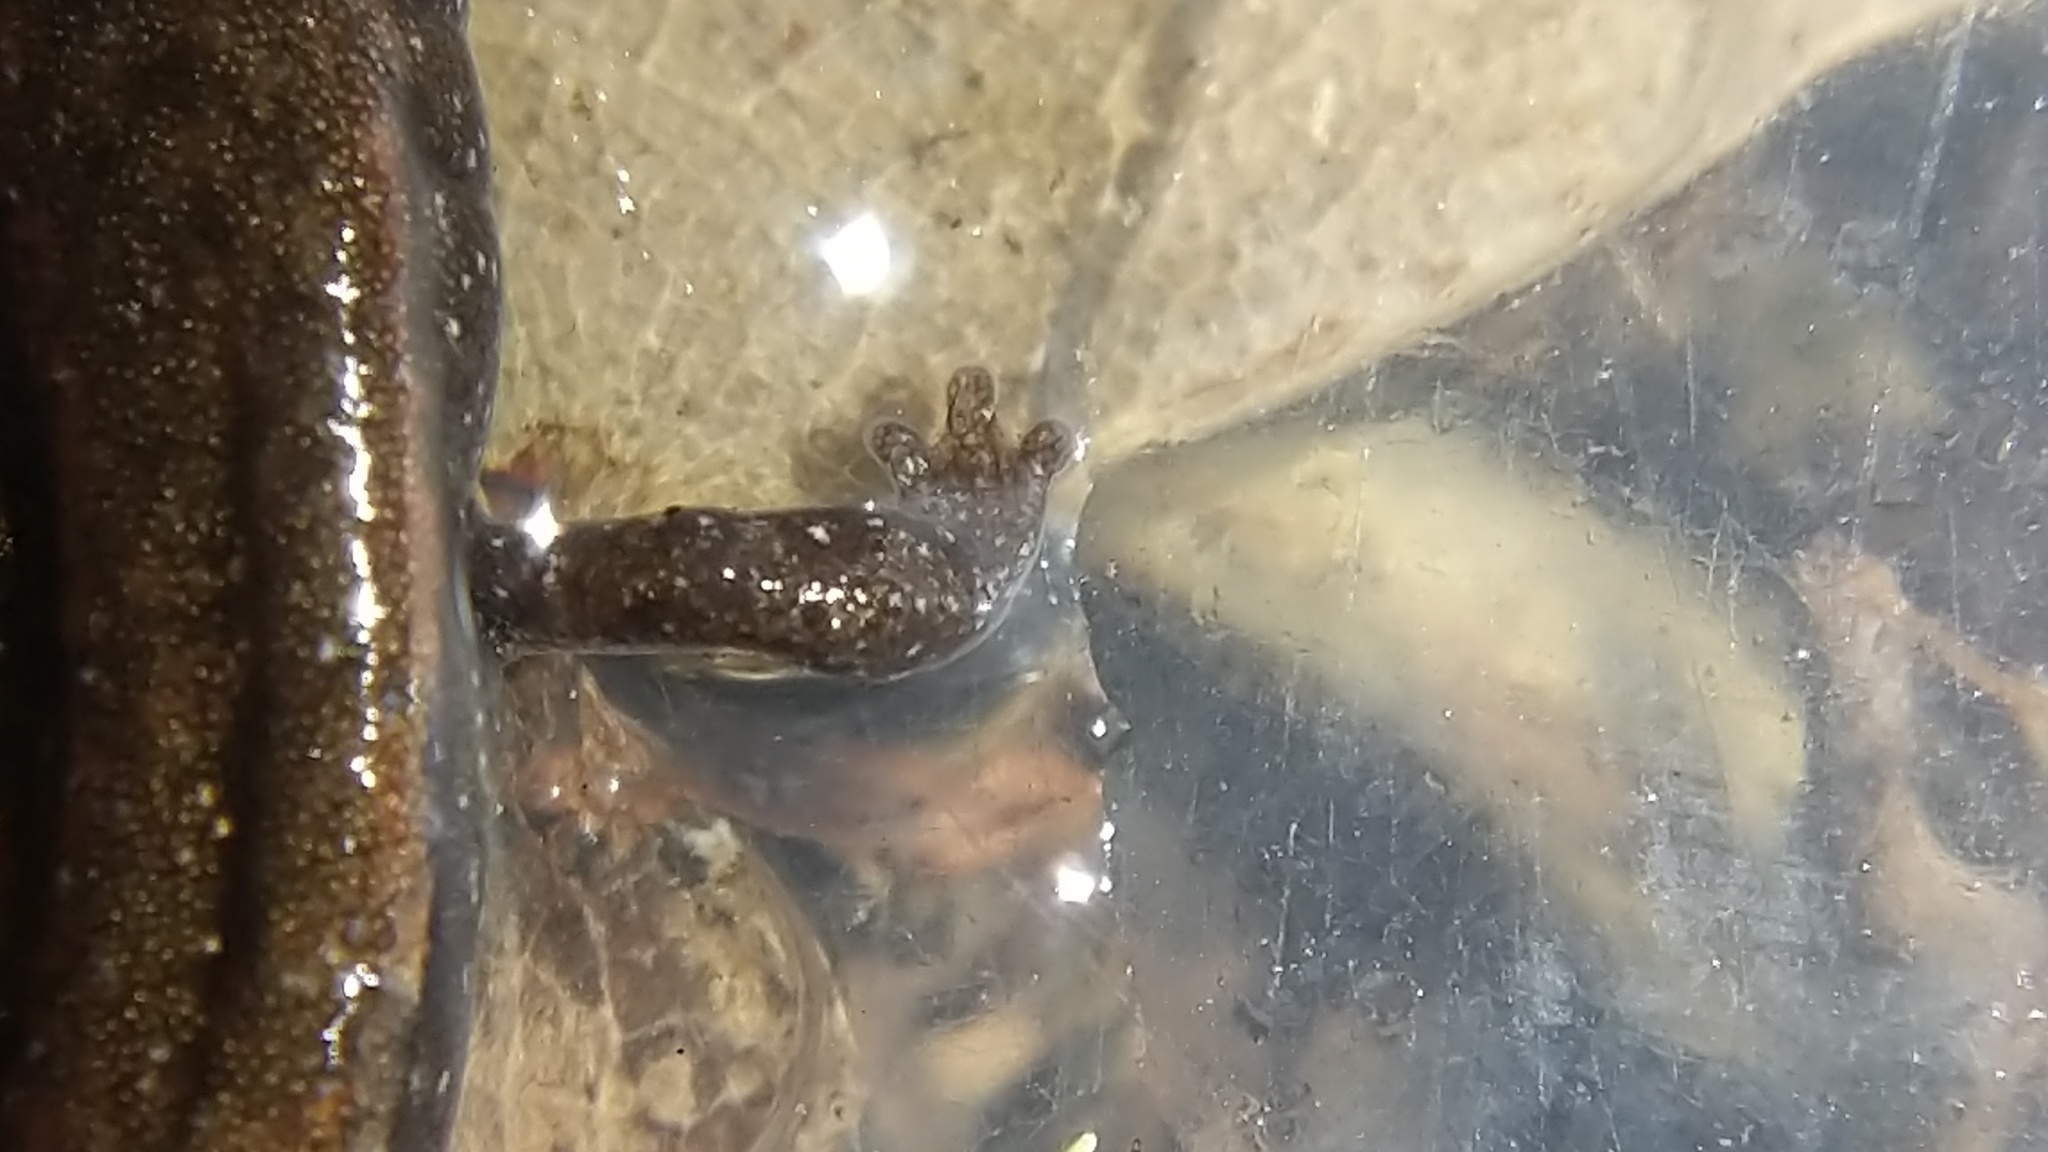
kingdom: Animalia
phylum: Chordata
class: Amphibia
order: Caudata
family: Plethodontidae
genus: Batrachoseps
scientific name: Batrachoseps luciae
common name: Santa lucia mountains slender salamander
